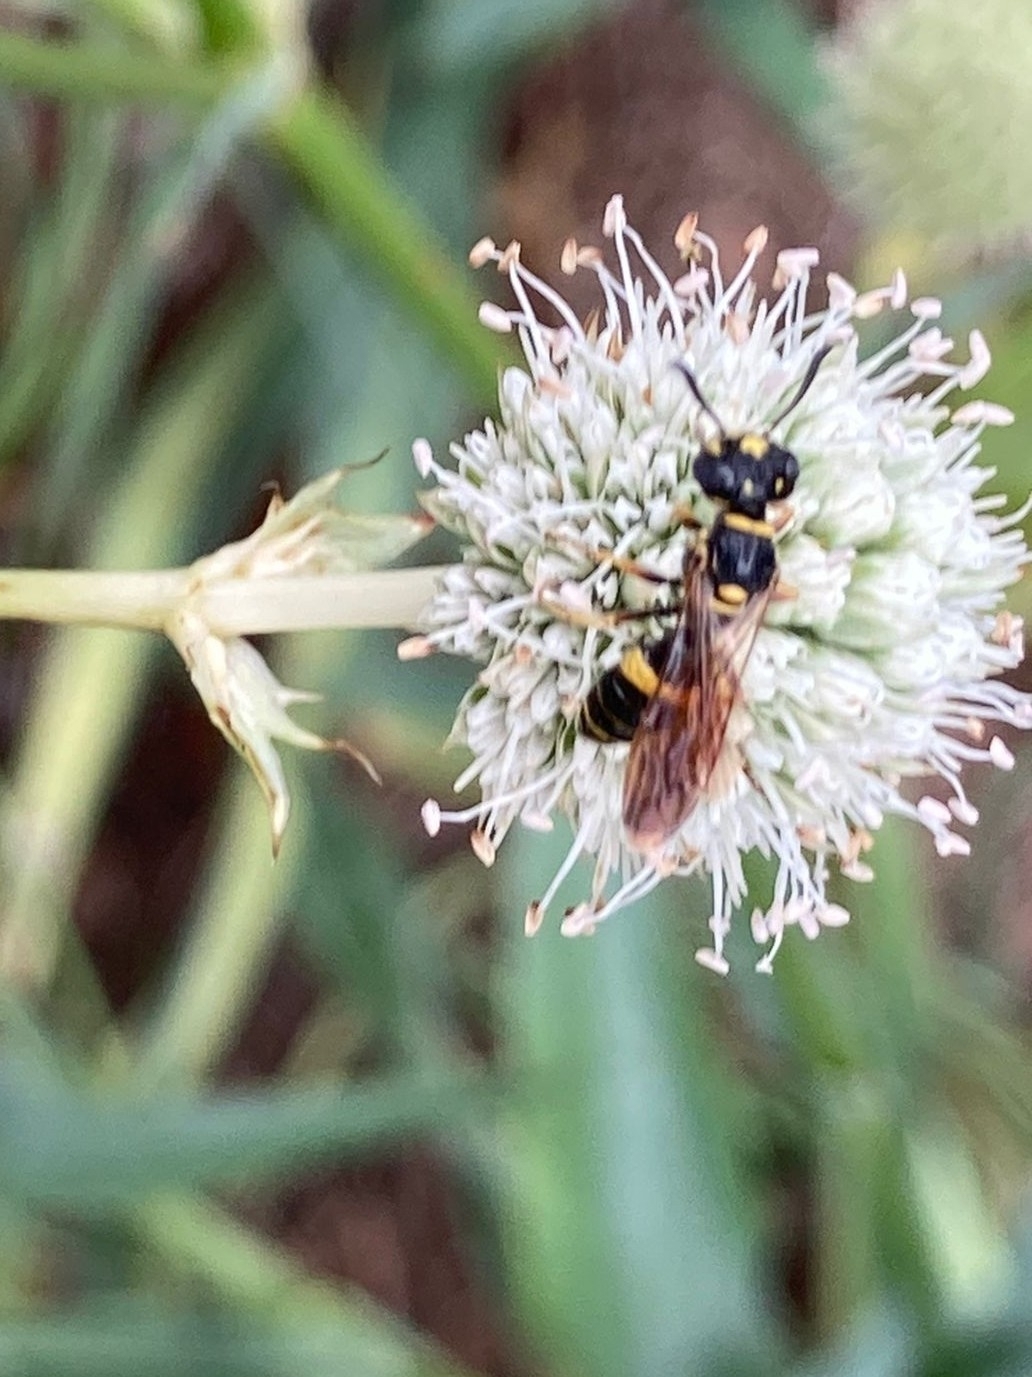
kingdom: Animalia
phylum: Arthropoda
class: Insecta
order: Hymenoptera
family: Crabronidae
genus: Philanthus
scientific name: Philanthus gibbosus
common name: Humped beewolf
